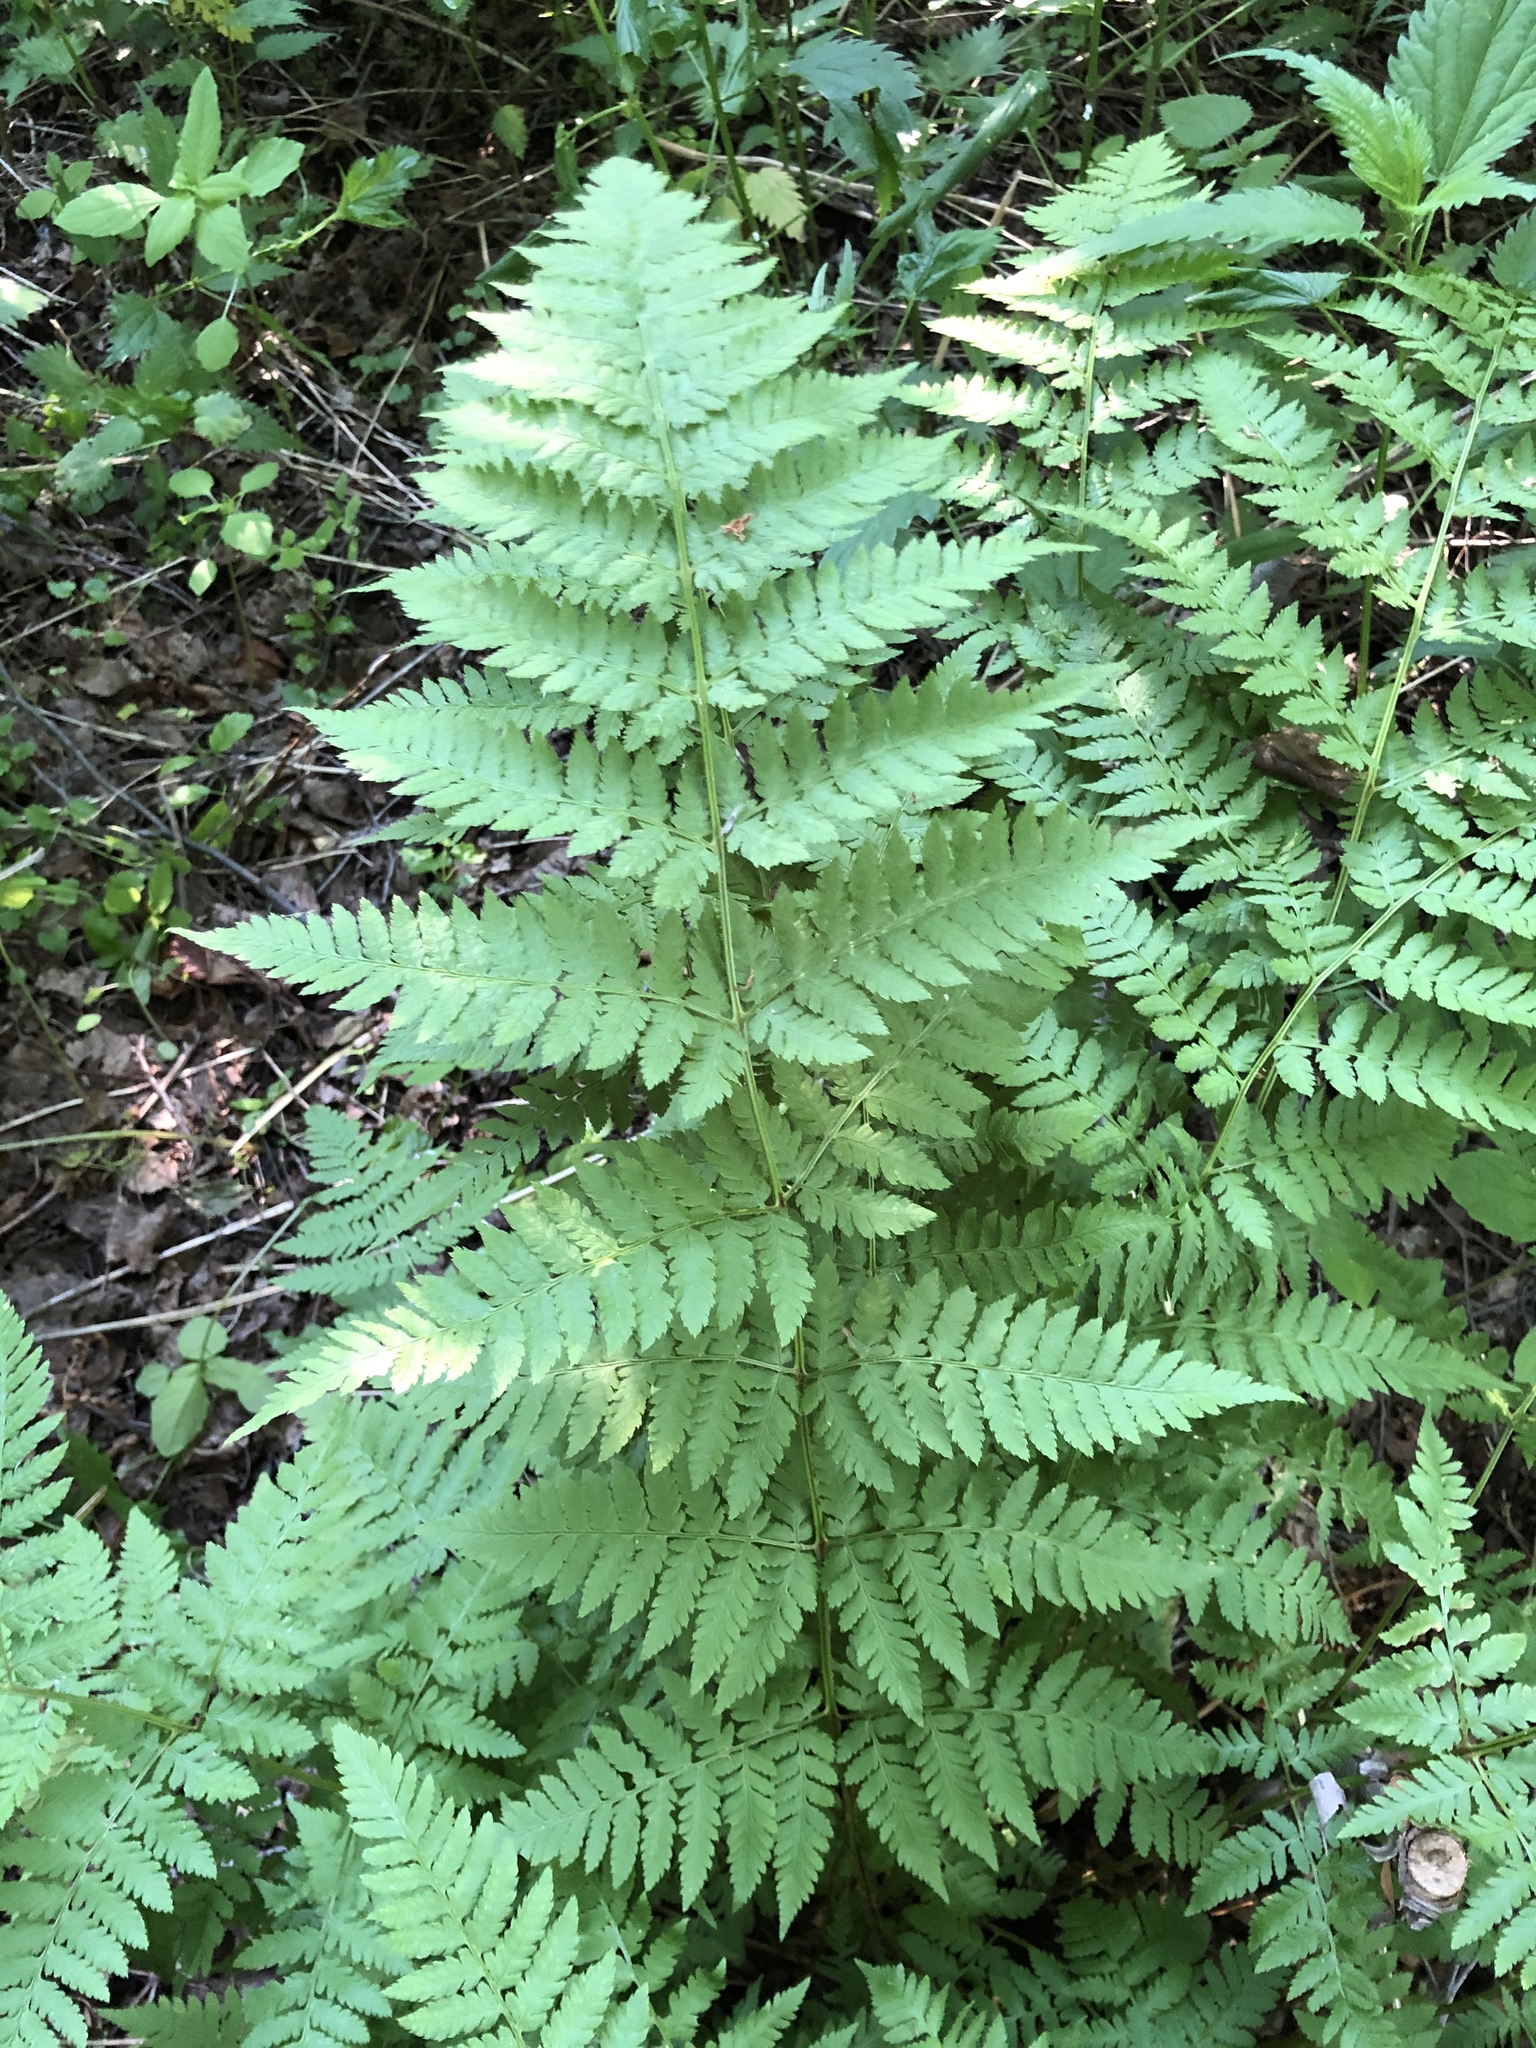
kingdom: Plantae
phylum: Tracheophyta
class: Polypodiopsida
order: Polypodiales
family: Dryopteridaceae
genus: Dryopteris
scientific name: Dryopteris carthusiana
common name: Narrow buckler-fern
